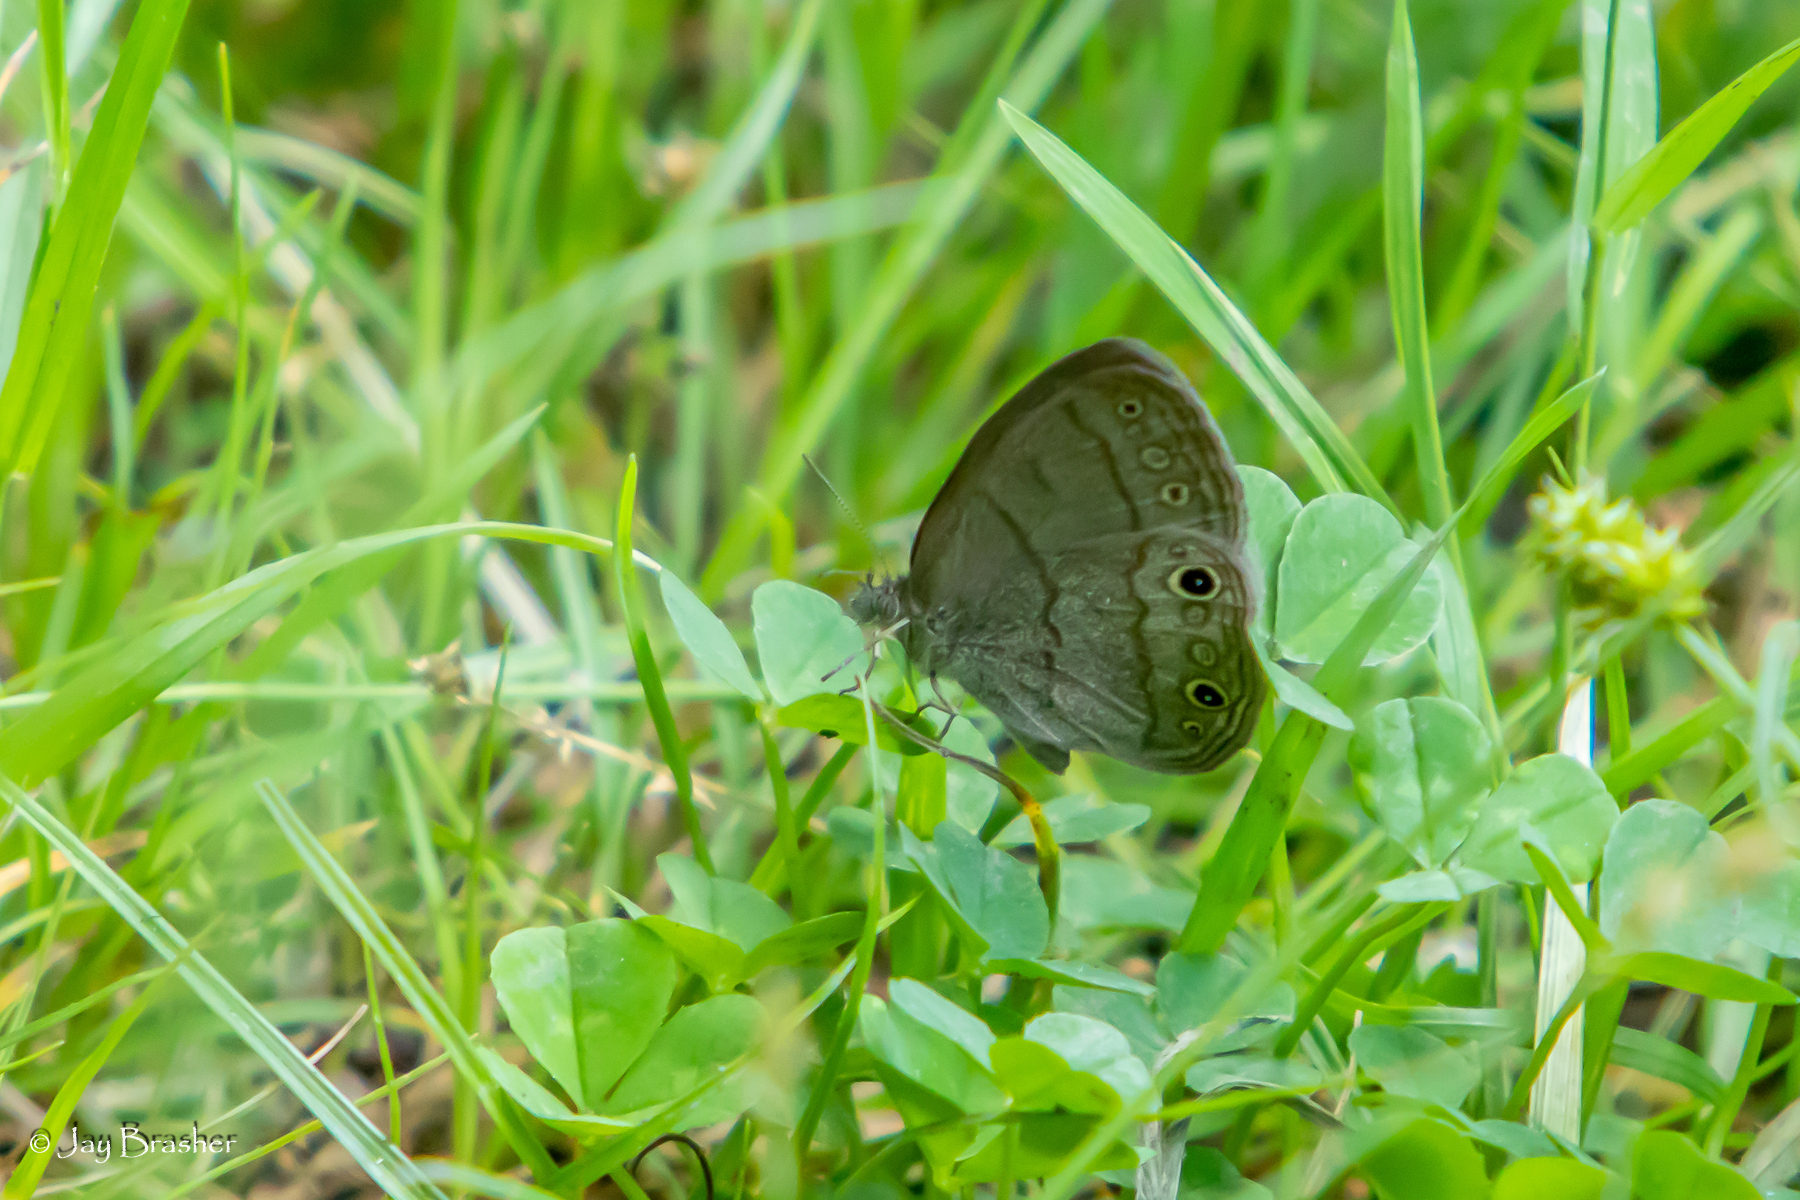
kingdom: Animalia
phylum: Arthropoda
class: Insecta
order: Lepidoptera
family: Nymphalidae
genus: Hermeuptychia
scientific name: Hermeuptychia hermes
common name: Hermes satyr
